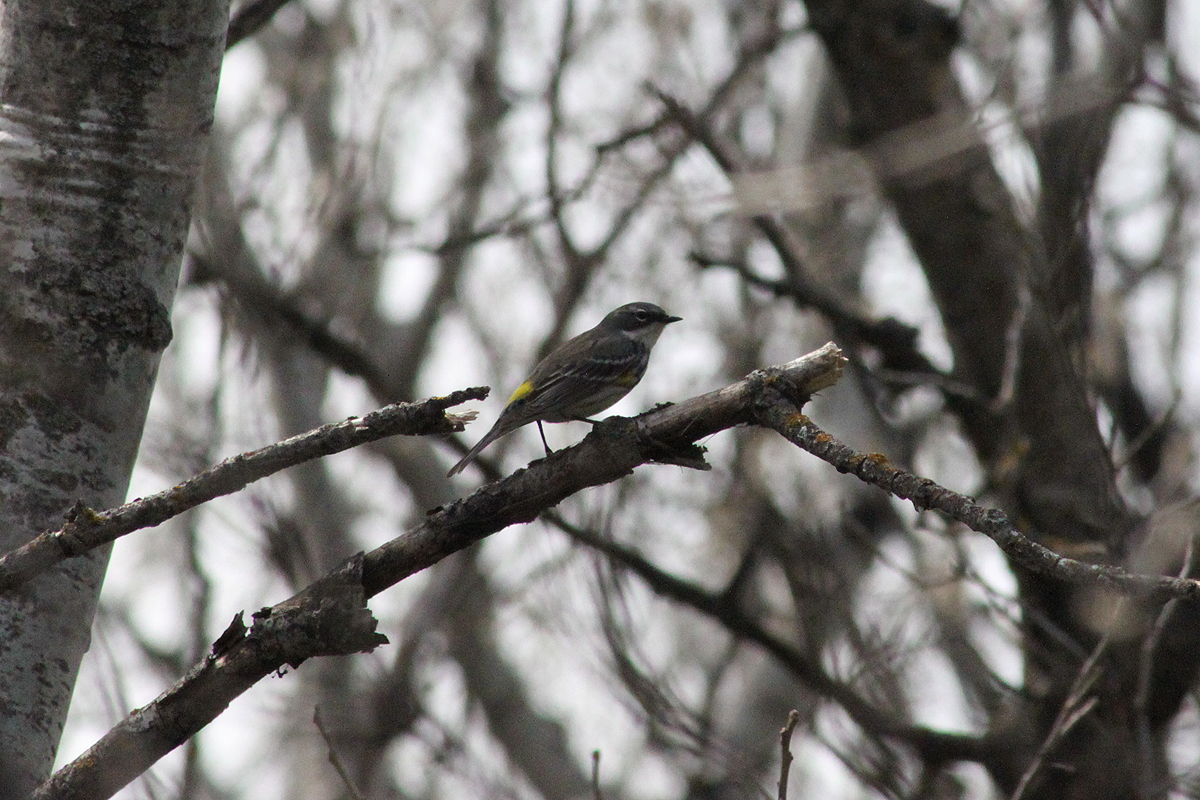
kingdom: Animalia
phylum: Chordata
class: Aves
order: Passeriformes
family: Parulidae
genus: Setophaga
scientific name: Setophaga coronata
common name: Myrtle warbler
